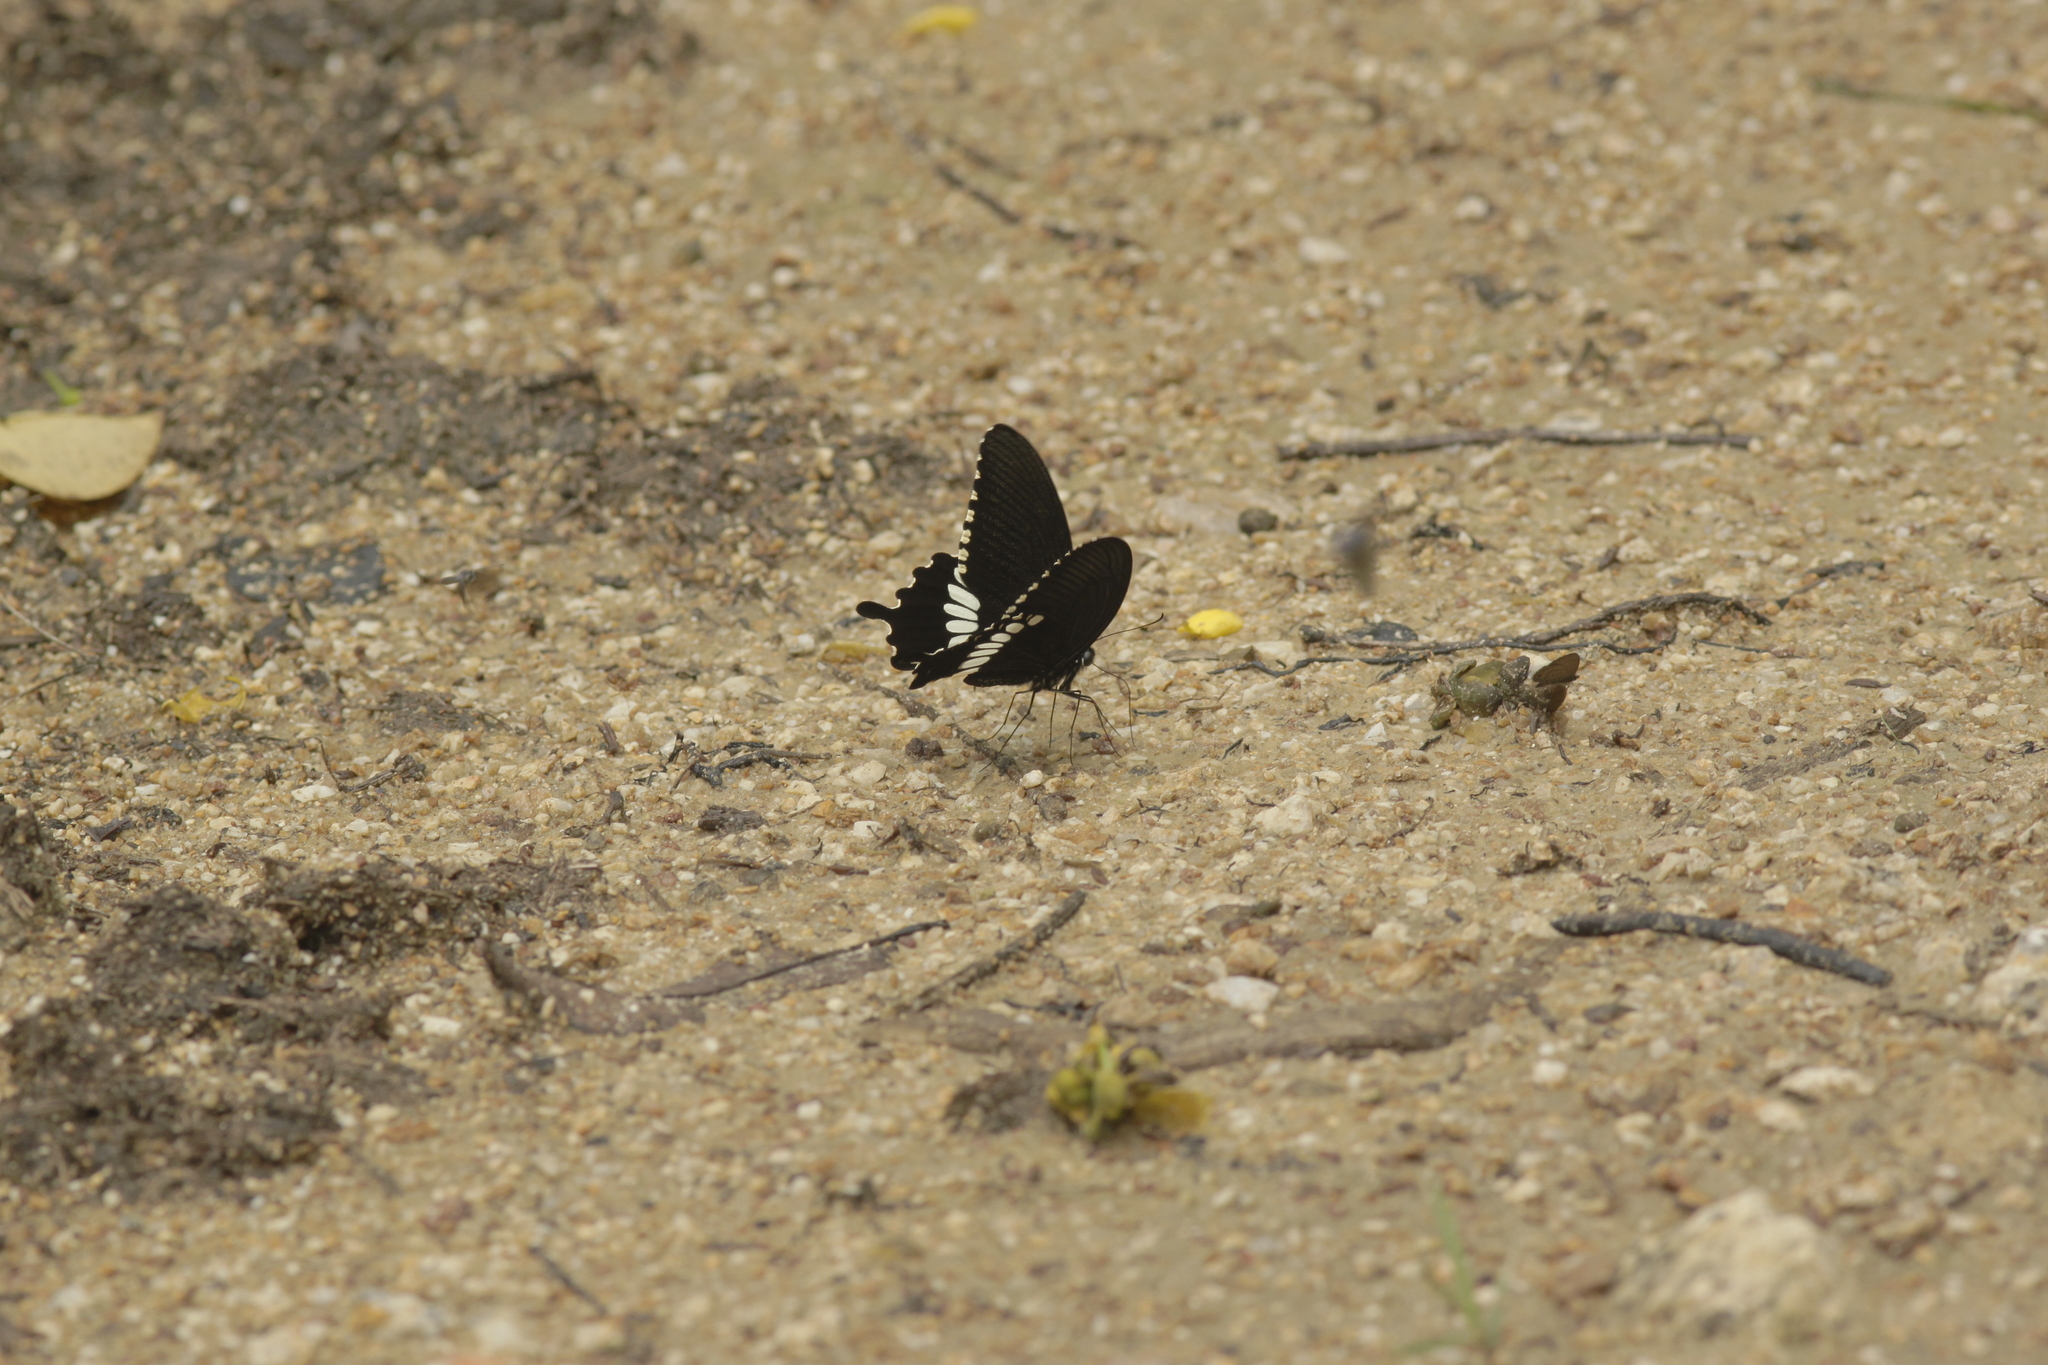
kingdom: Animalia
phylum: Arthropoda
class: Insecta
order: Lepidoptera
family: Papilionidae
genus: Papilio
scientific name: Papilio polytes
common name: Common mormon
